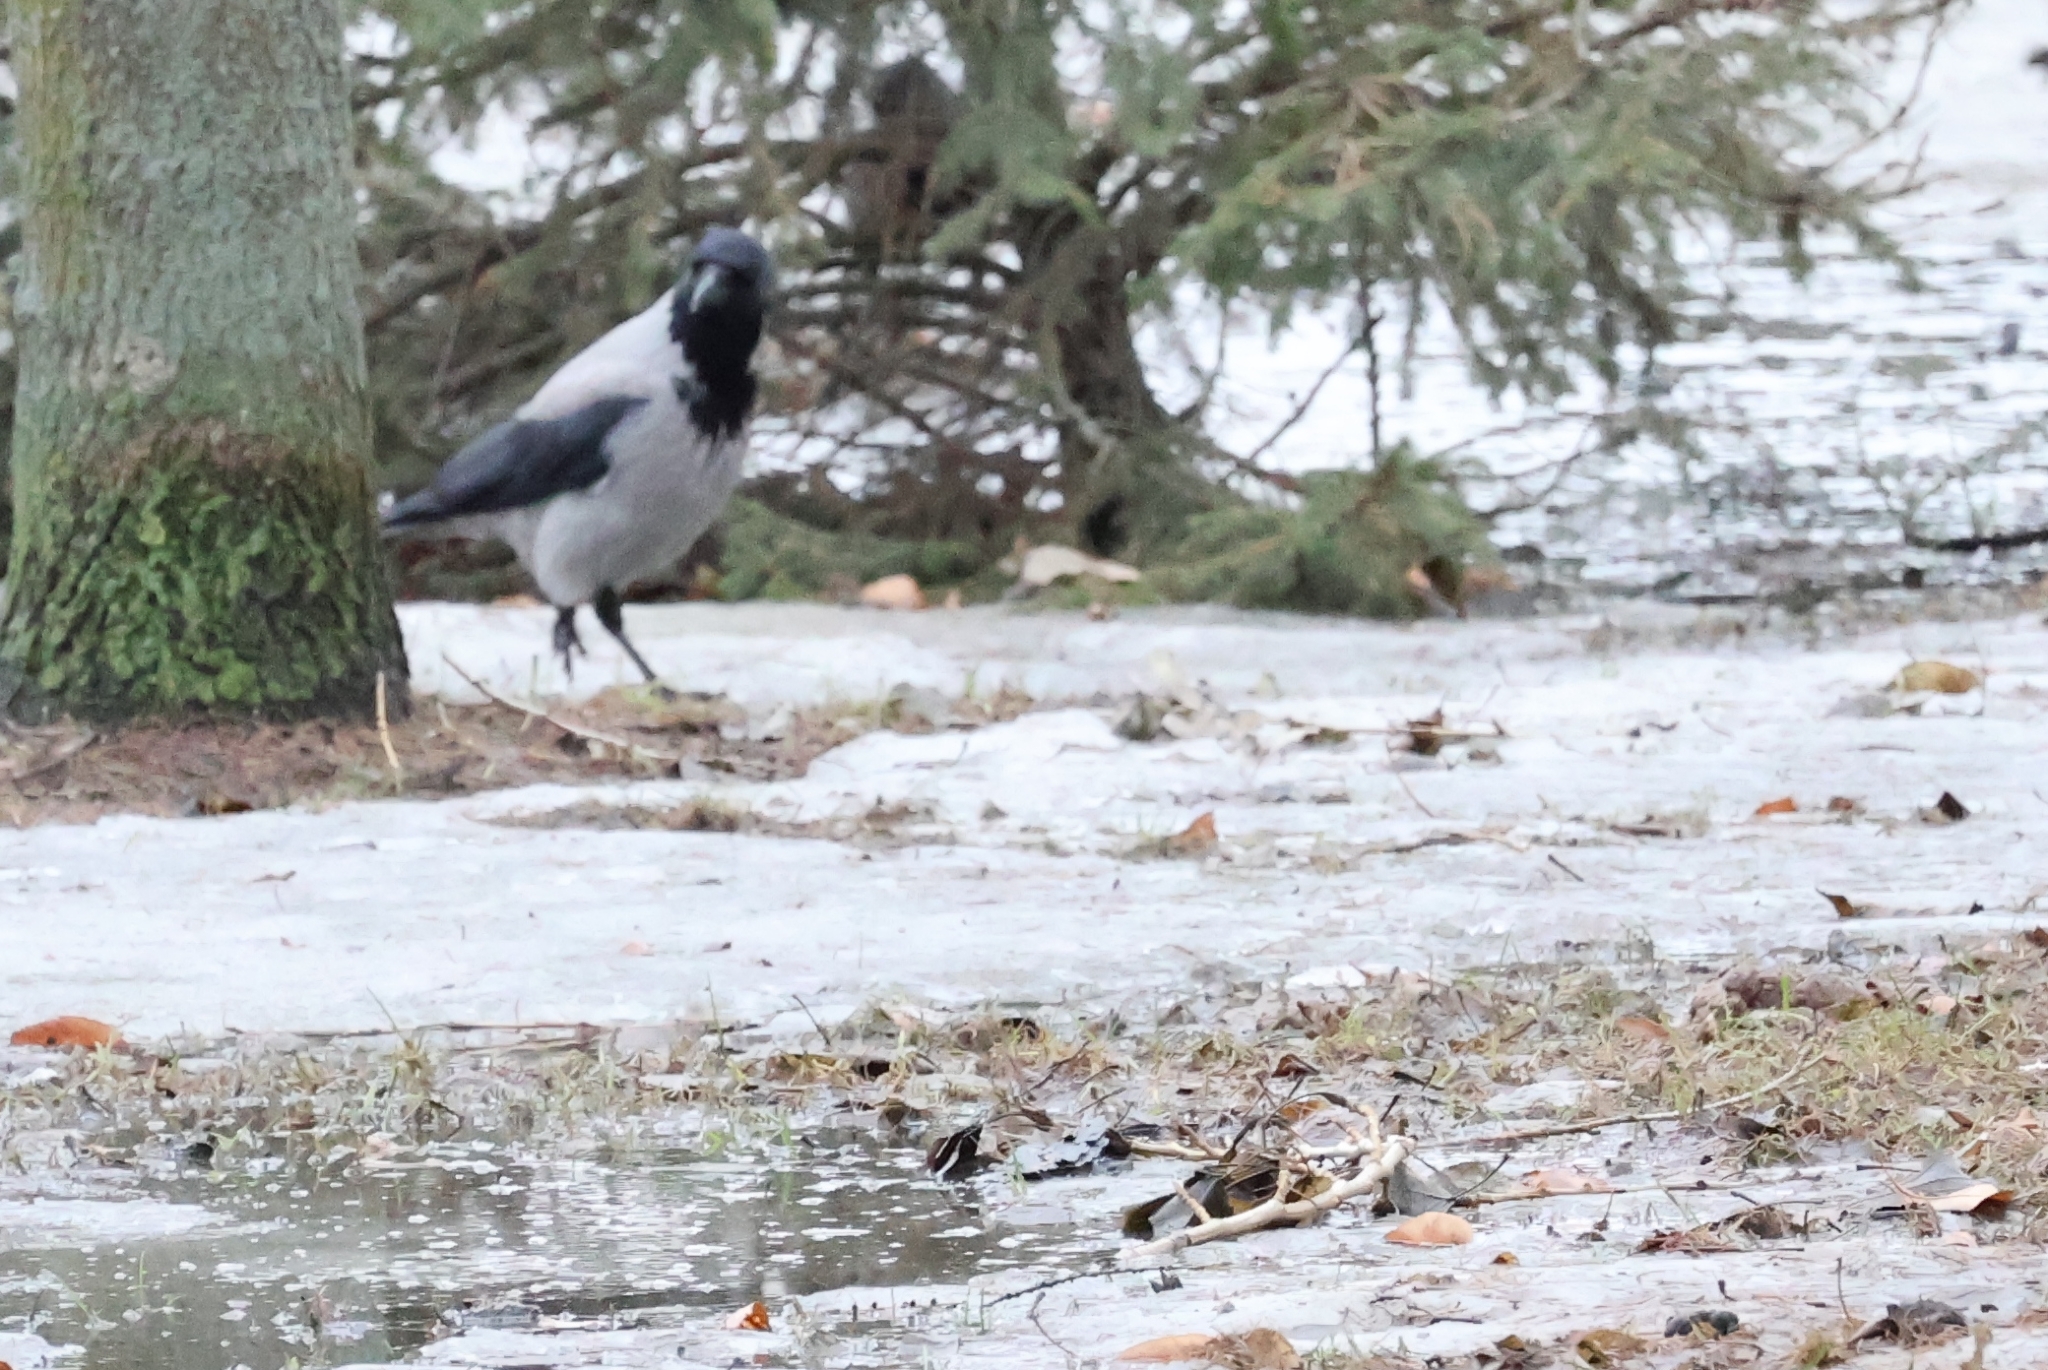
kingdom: Animalia
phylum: Chordata
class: Aves
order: Passeriformes
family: Corvidae
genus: Corvus
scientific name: Corvus cornix
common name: Hooded crow
